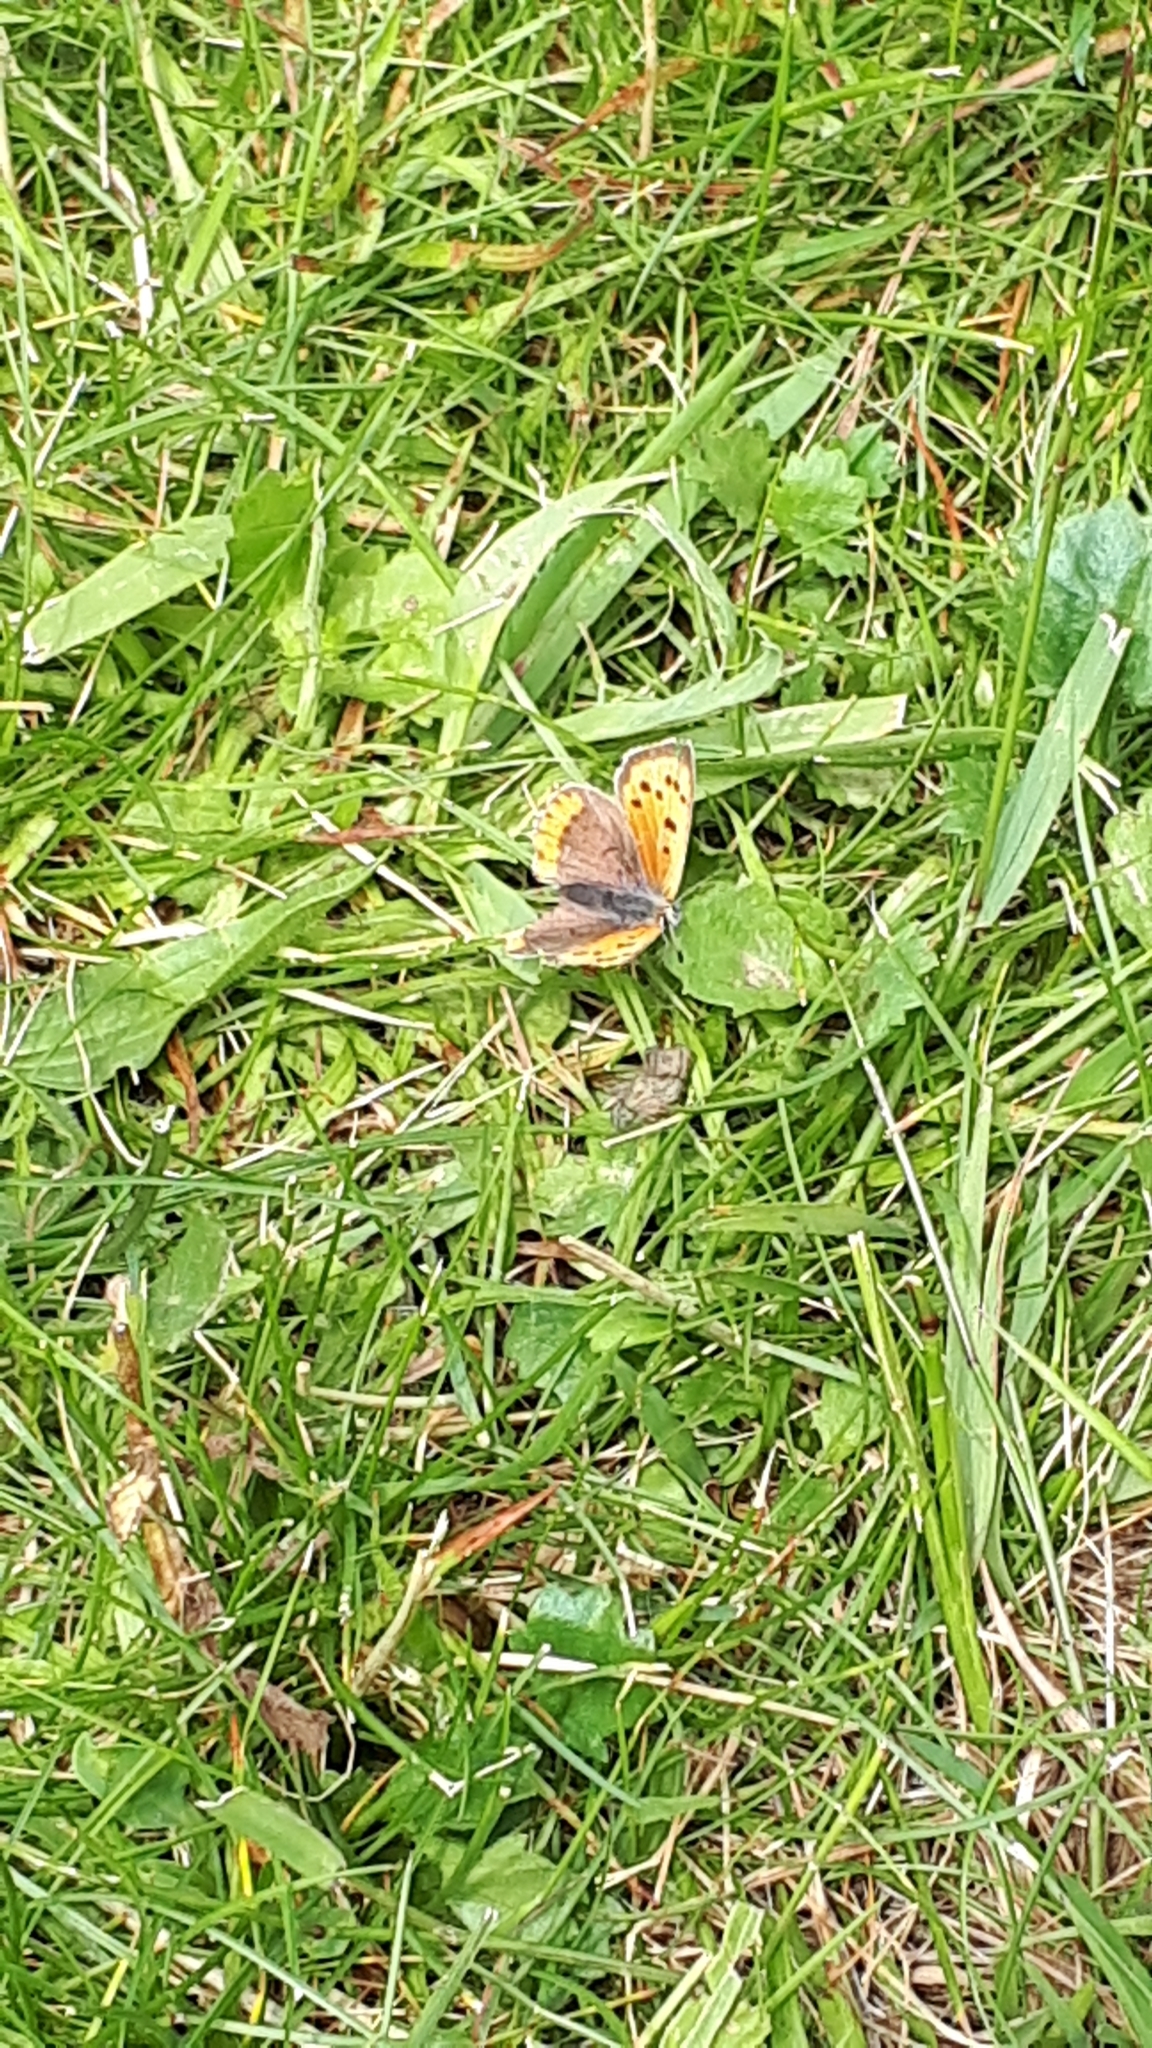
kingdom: Animalia
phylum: Arthropoda
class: Insecta
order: Lepidoptera
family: Lycaenidae
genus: Lycaena
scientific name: Lycaena phlaeas
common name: Small copper
